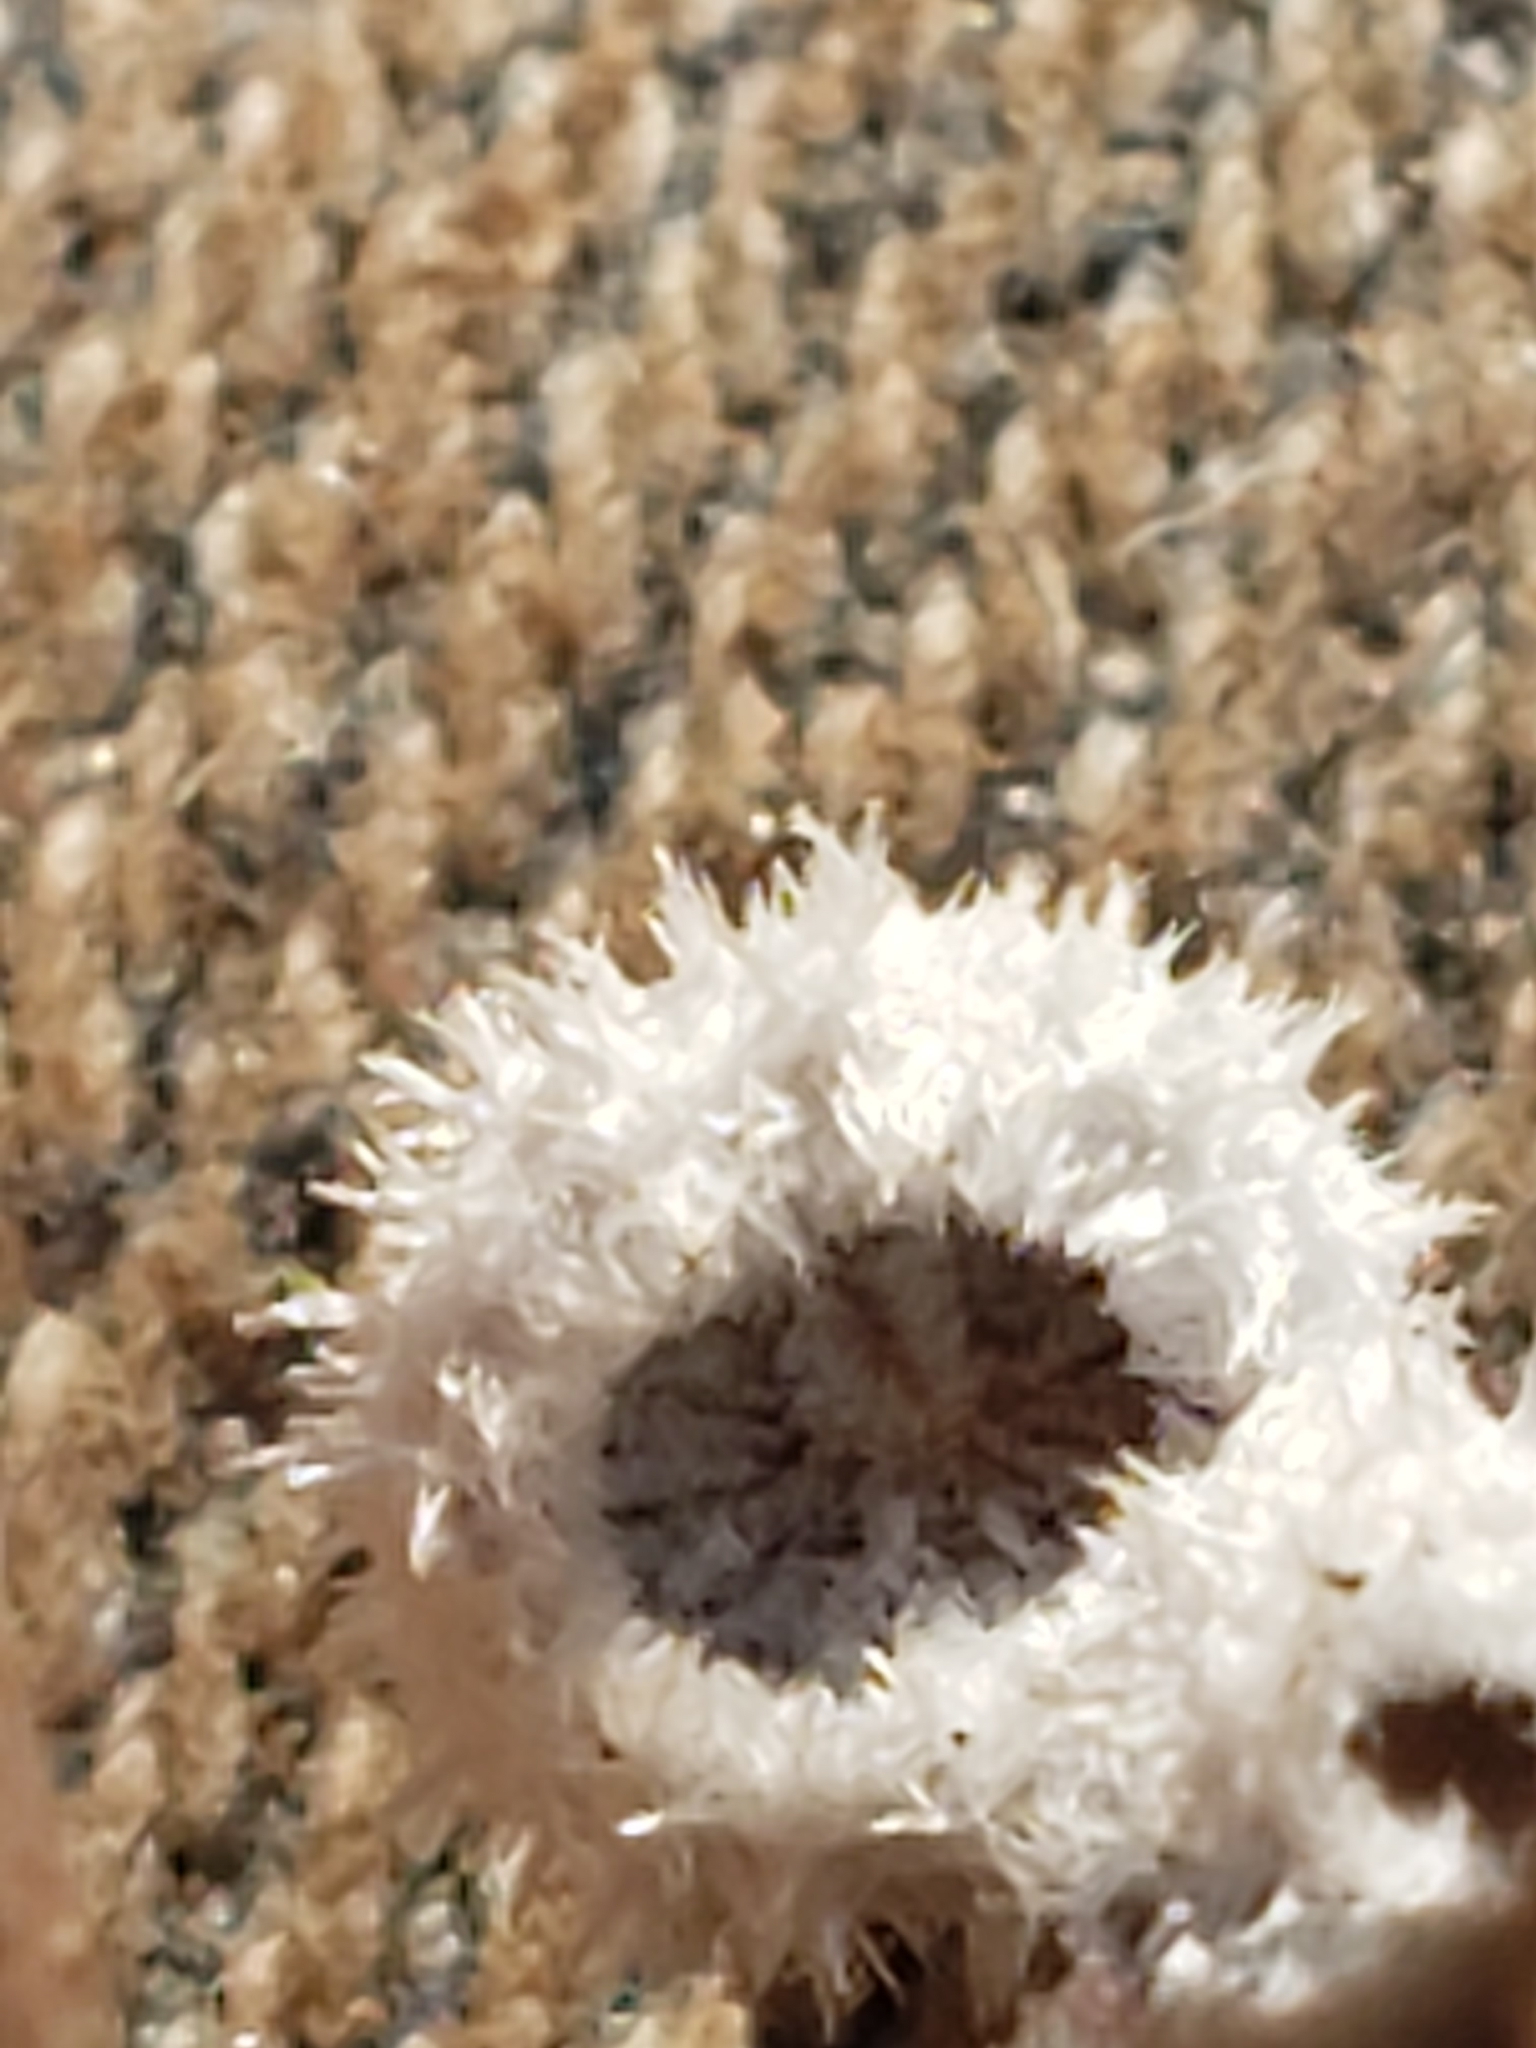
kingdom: Fungi
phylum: Basidiomycota
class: Agaricomycetes
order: Agaricales
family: Schizophyllaceae
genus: Schizophyllum
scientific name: Schizophyllum commune
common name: Common porecrust
